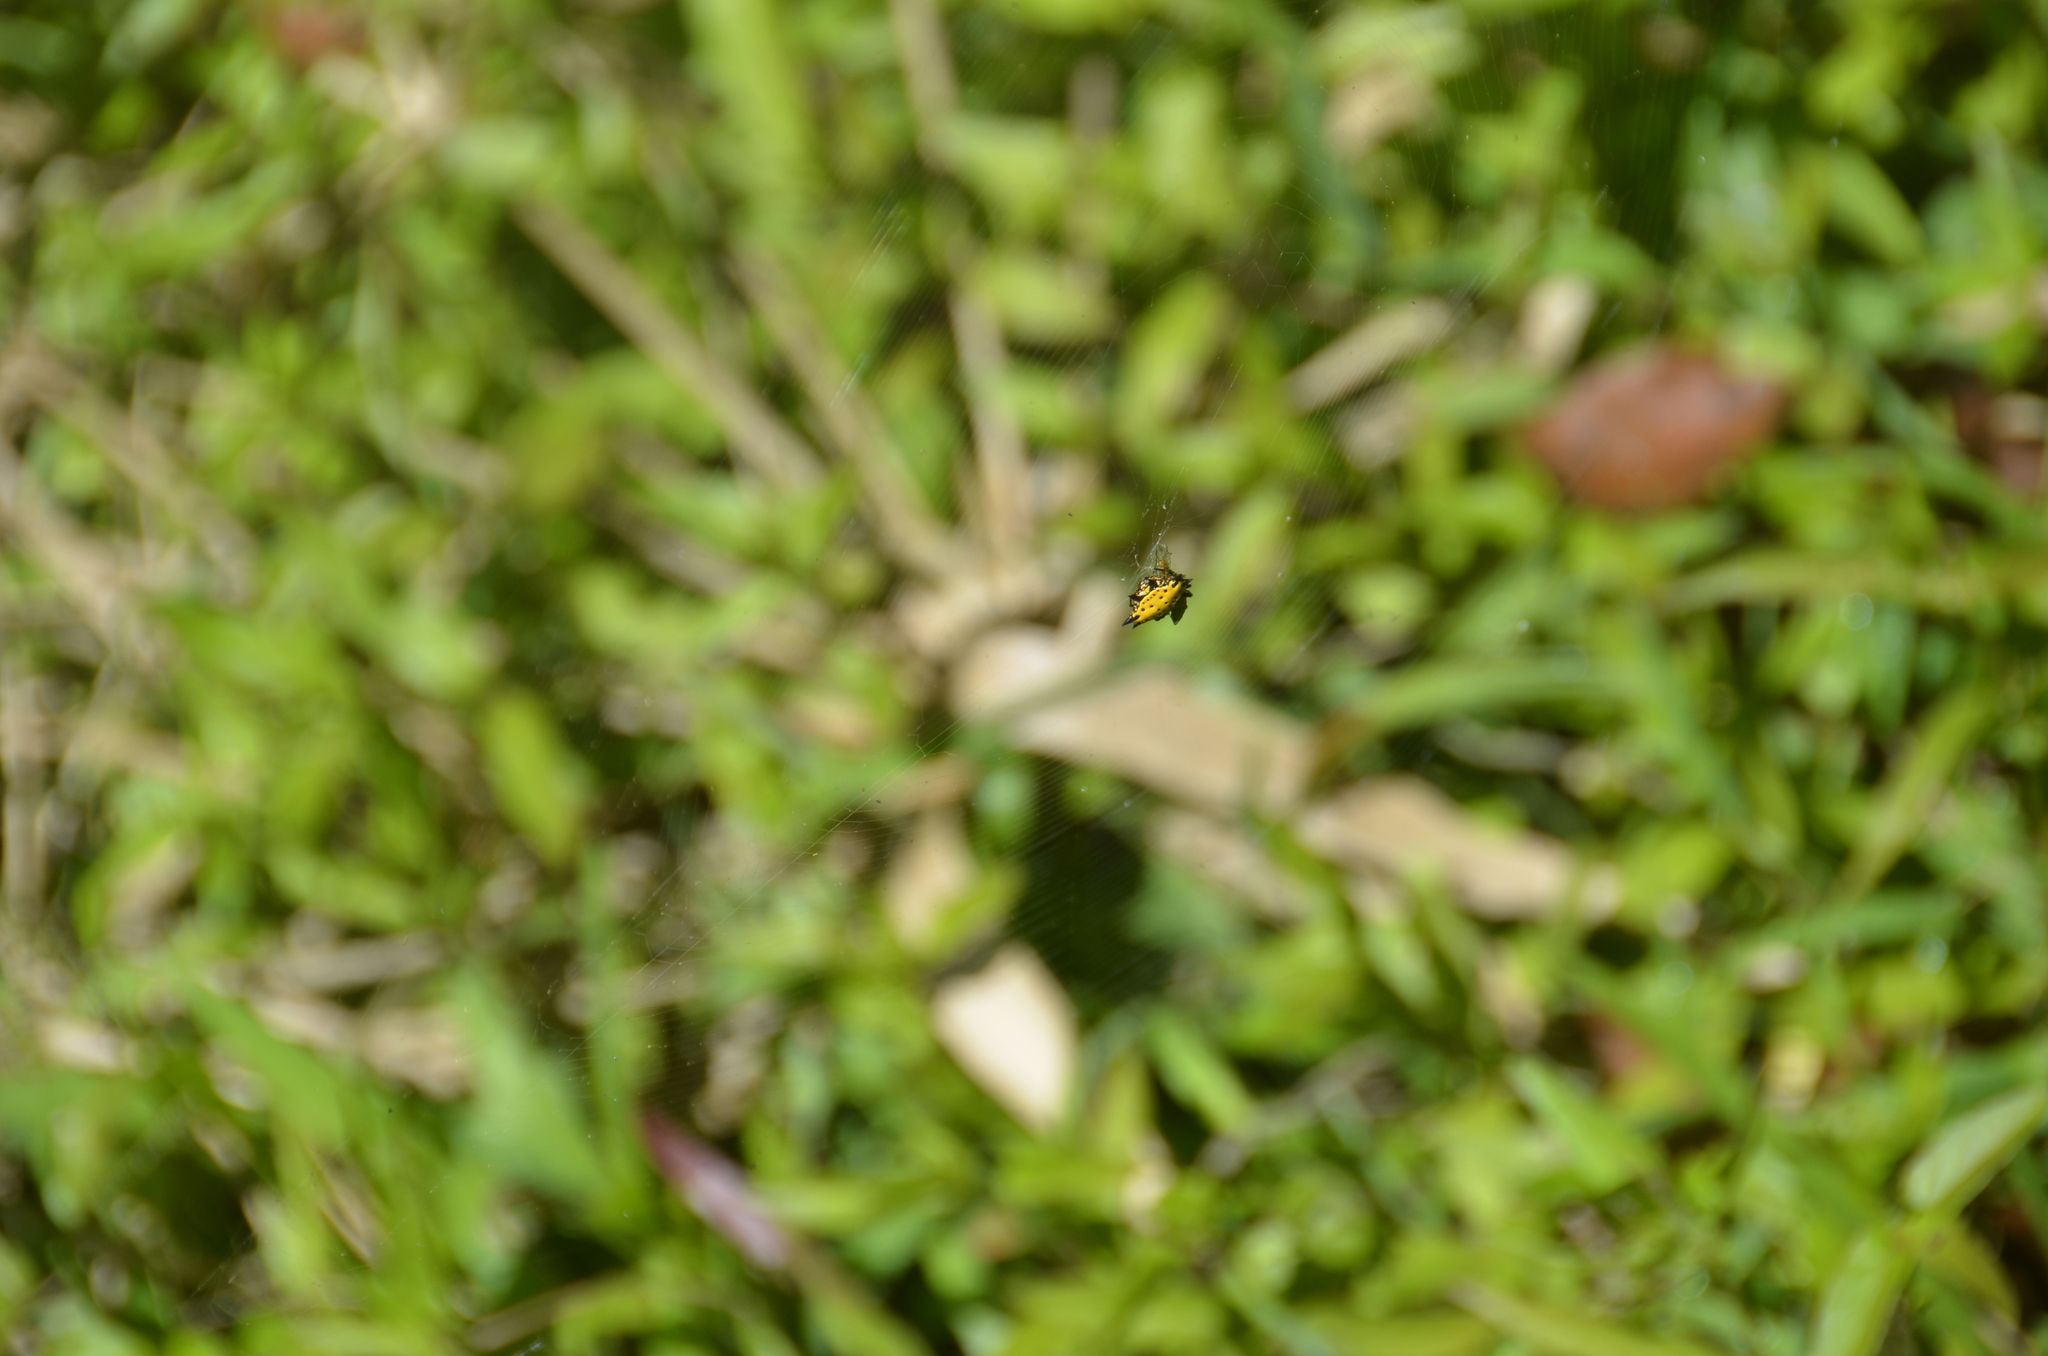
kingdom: Animalia
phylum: Arthropoda
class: Arachnida
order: Araneae
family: Araneidae
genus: Gasteracantha
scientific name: Gasteracantha cancriformis
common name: Orb weavers
